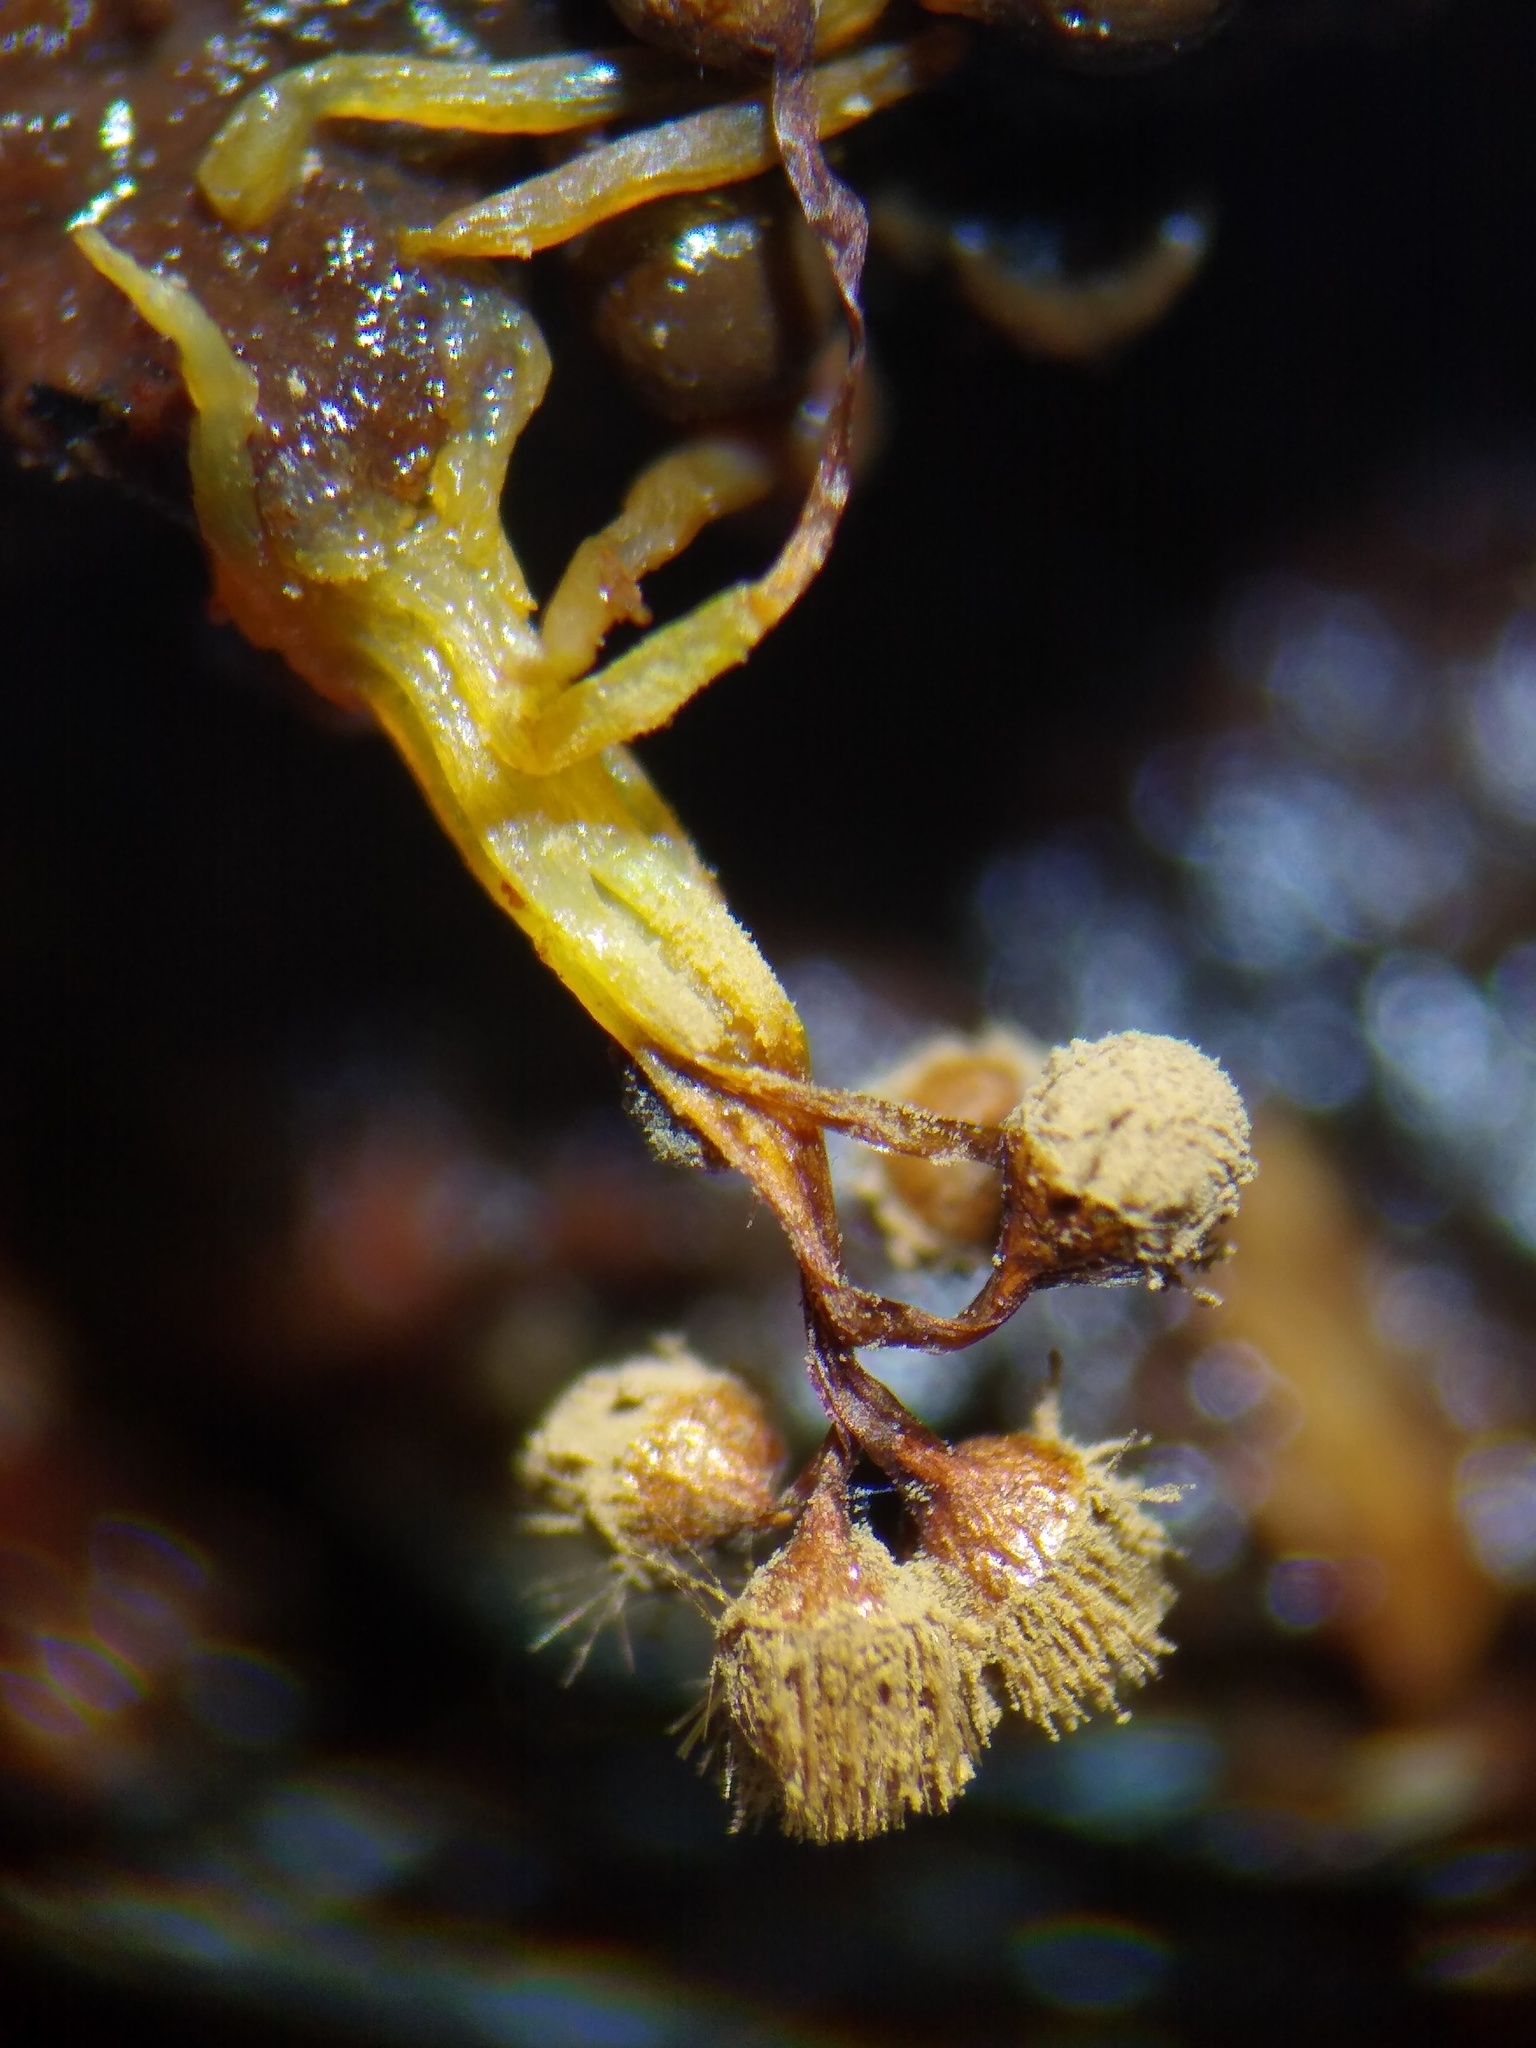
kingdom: Protozoa
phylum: Mycetozoa
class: Myxomycetes
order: Cribrariales
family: Tubiferaceae
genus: Alwisia
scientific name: Alwisia lloydiae
